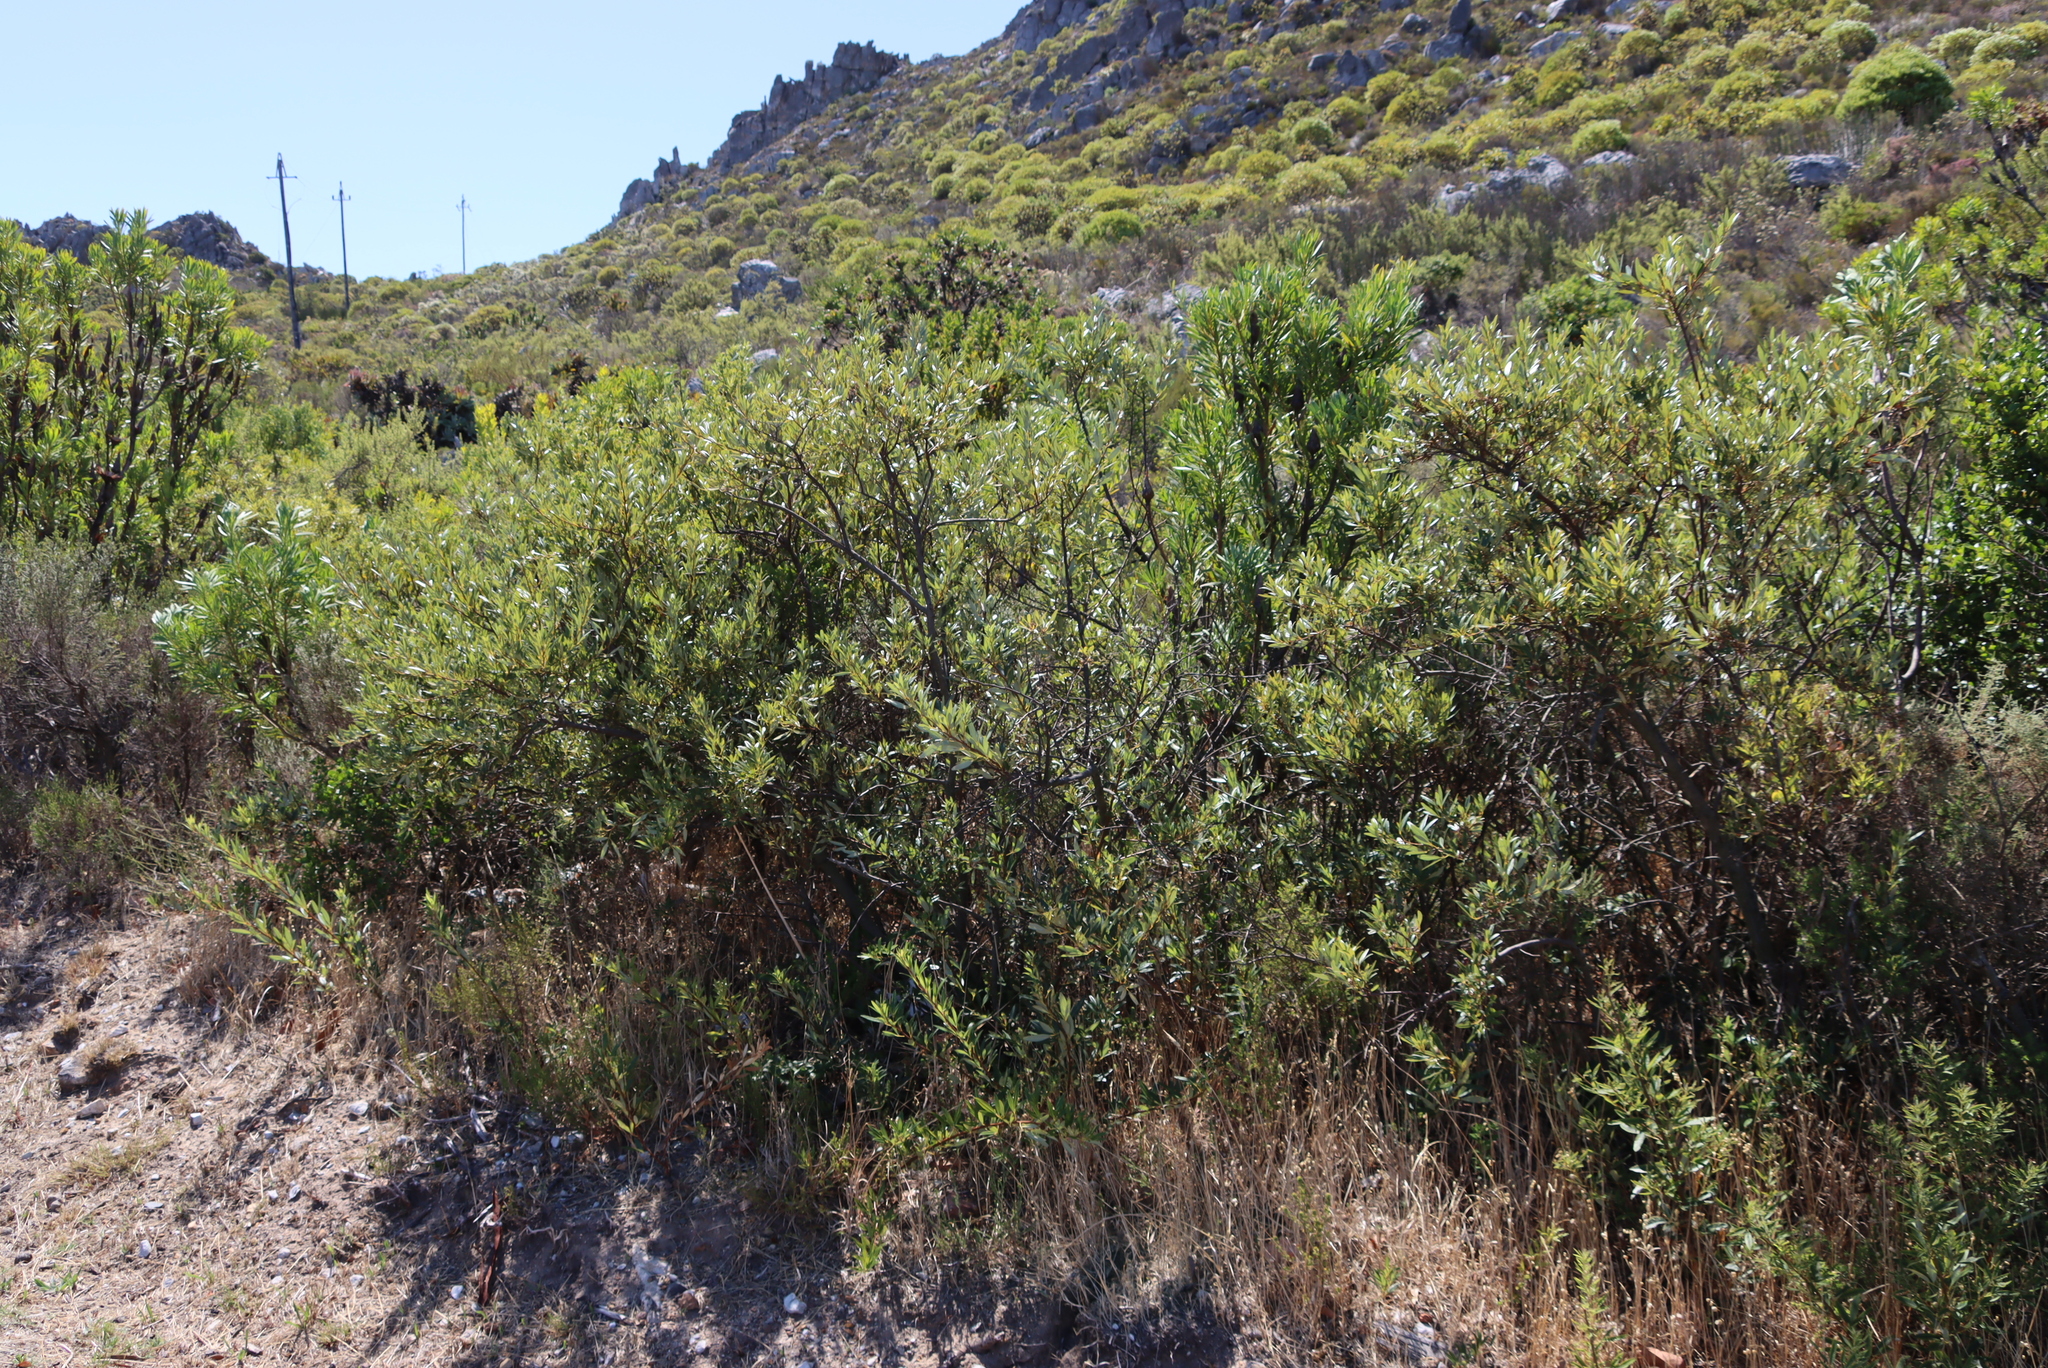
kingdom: Plantae
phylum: Tracheophyta
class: Magnoliopsida
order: Sapindales
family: Anacardiaceae
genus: Searsia
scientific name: Searsia angustifolia
